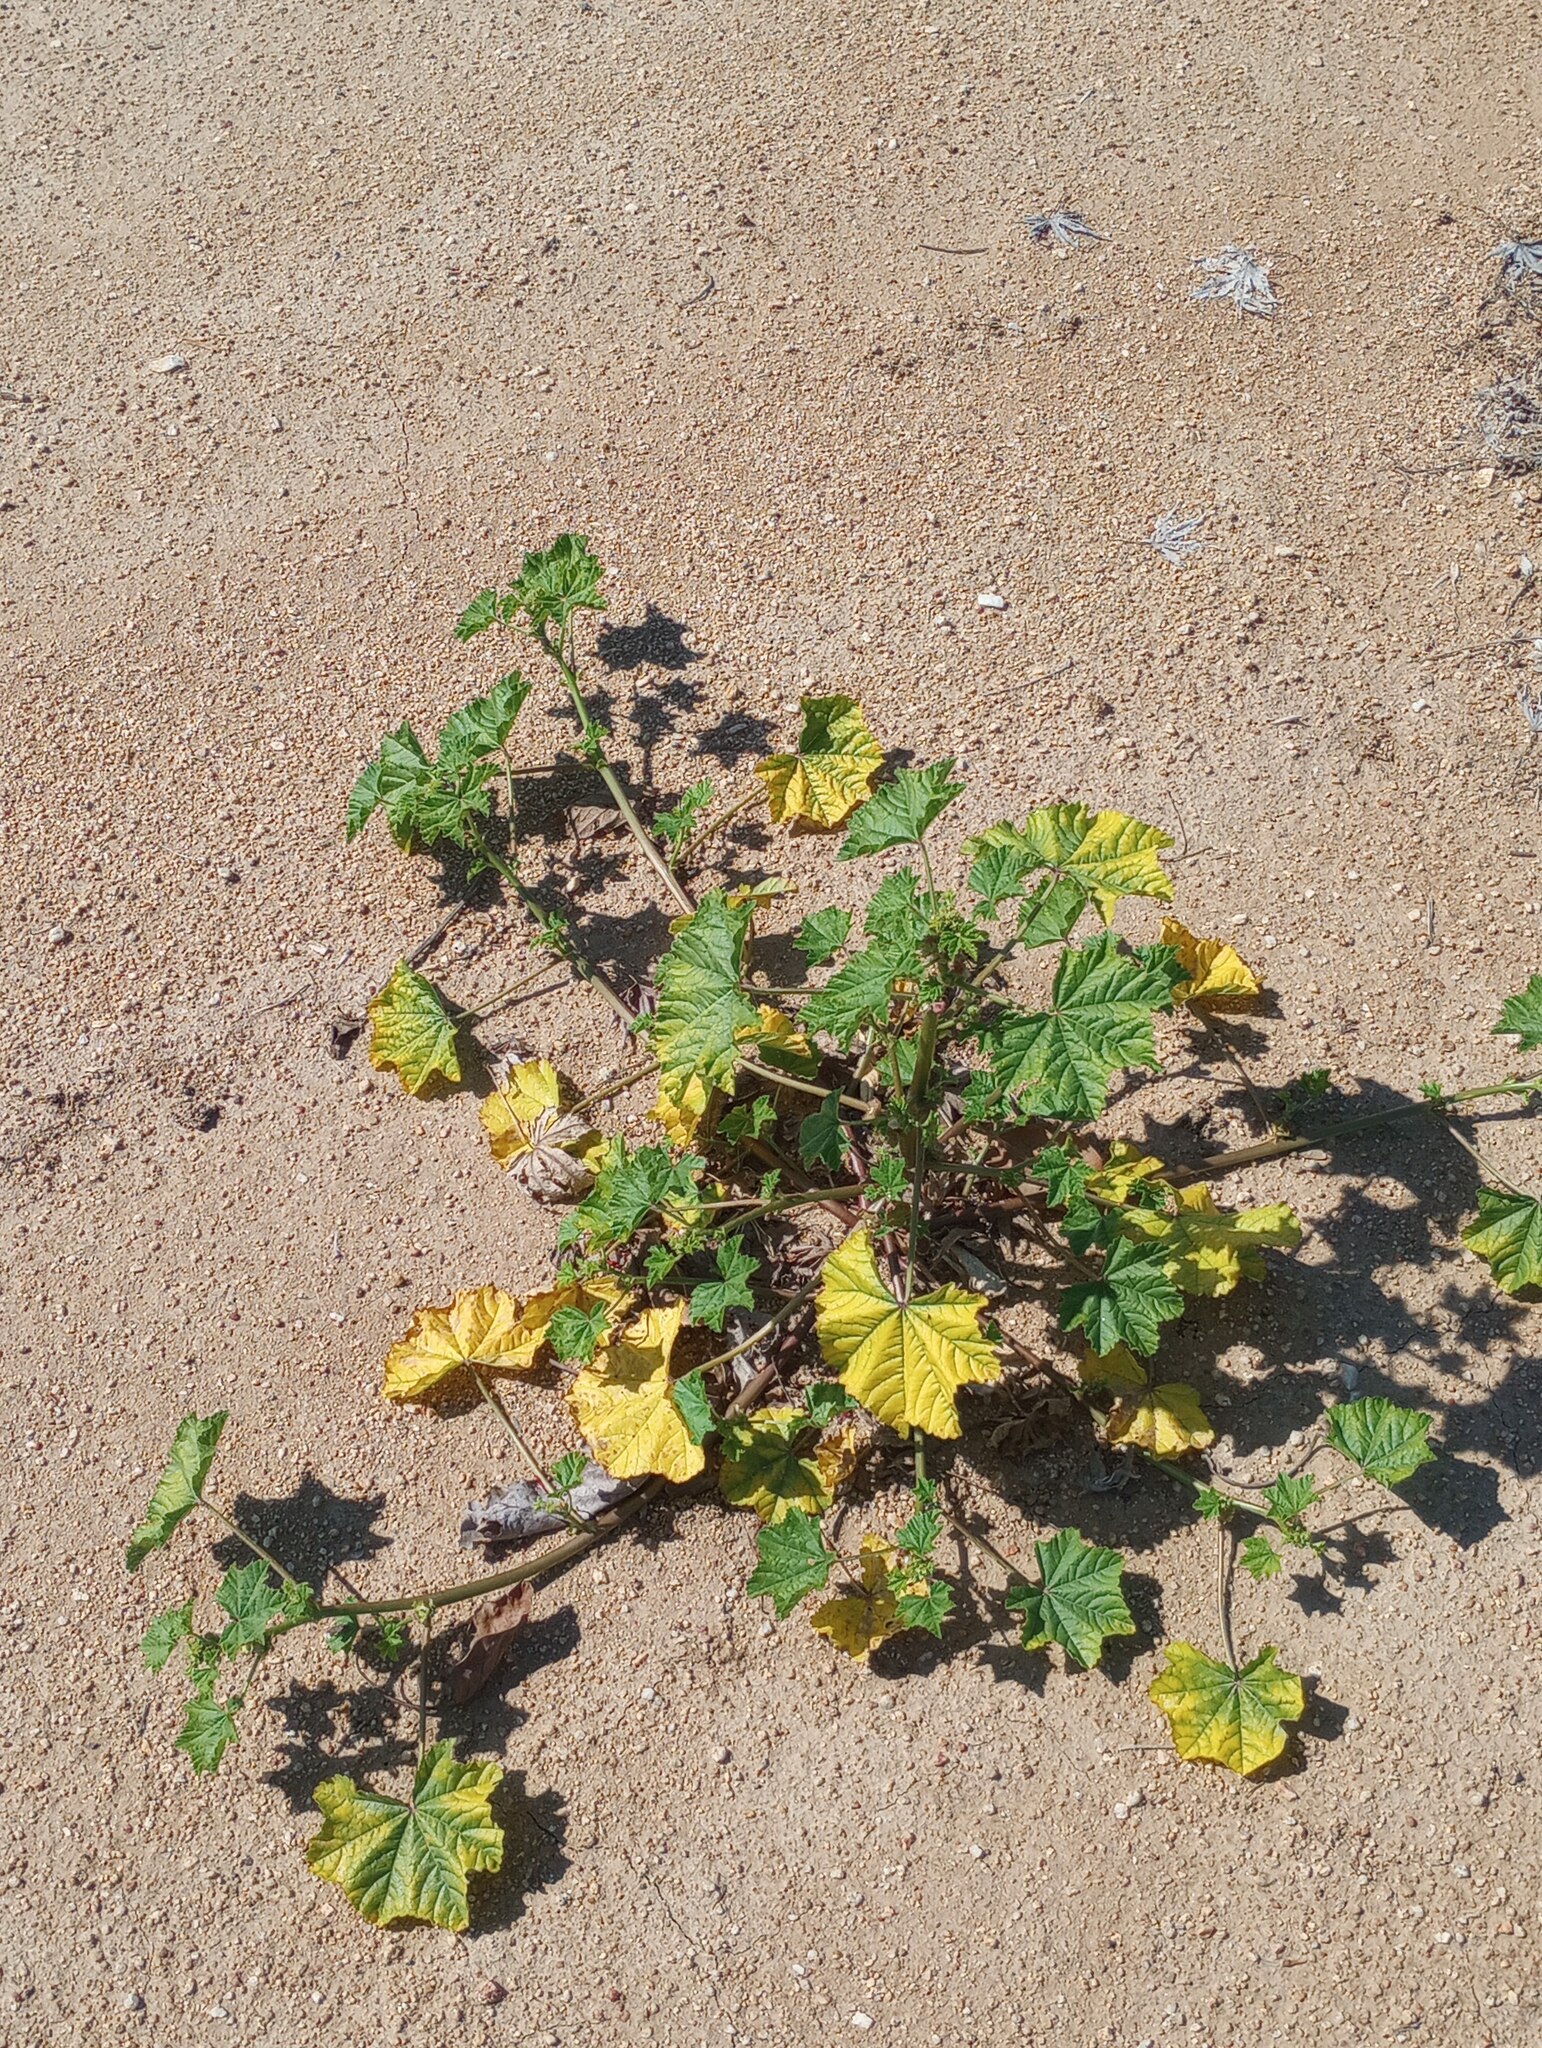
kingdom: Plantae
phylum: Tracheophyta
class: Magnoliopsida
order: Malvales
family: Malvaceae
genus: Malva
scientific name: Malva parviflora
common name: Least mallow
